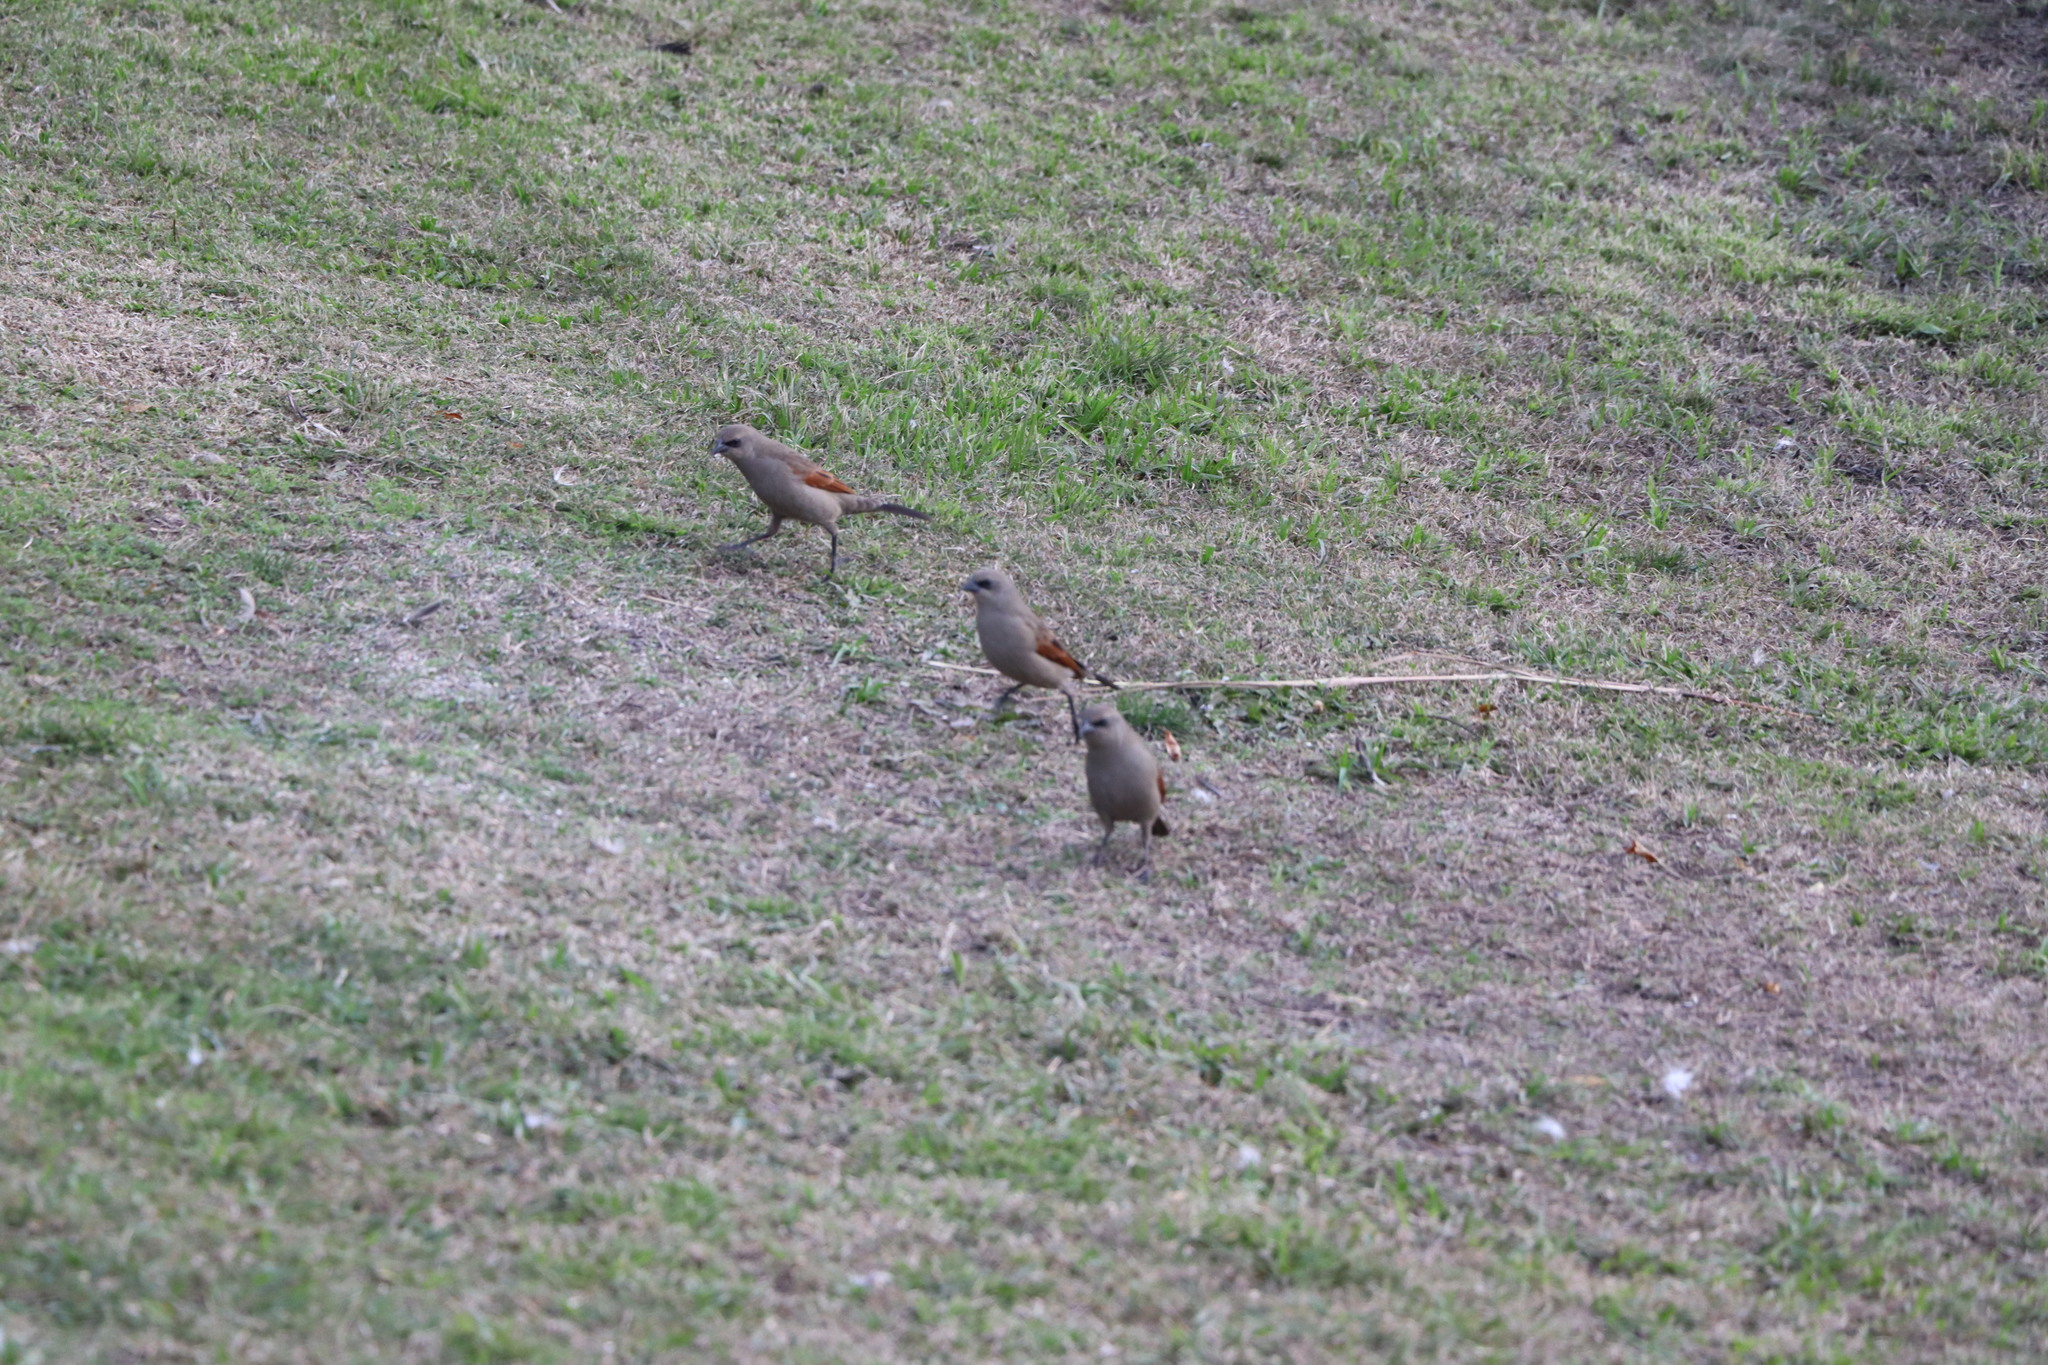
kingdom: Animalia
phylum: Chordata
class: Aves
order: Passeriformes
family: Icteridae
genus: Agelaioides
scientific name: Agelaioides badius
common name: Baywing
